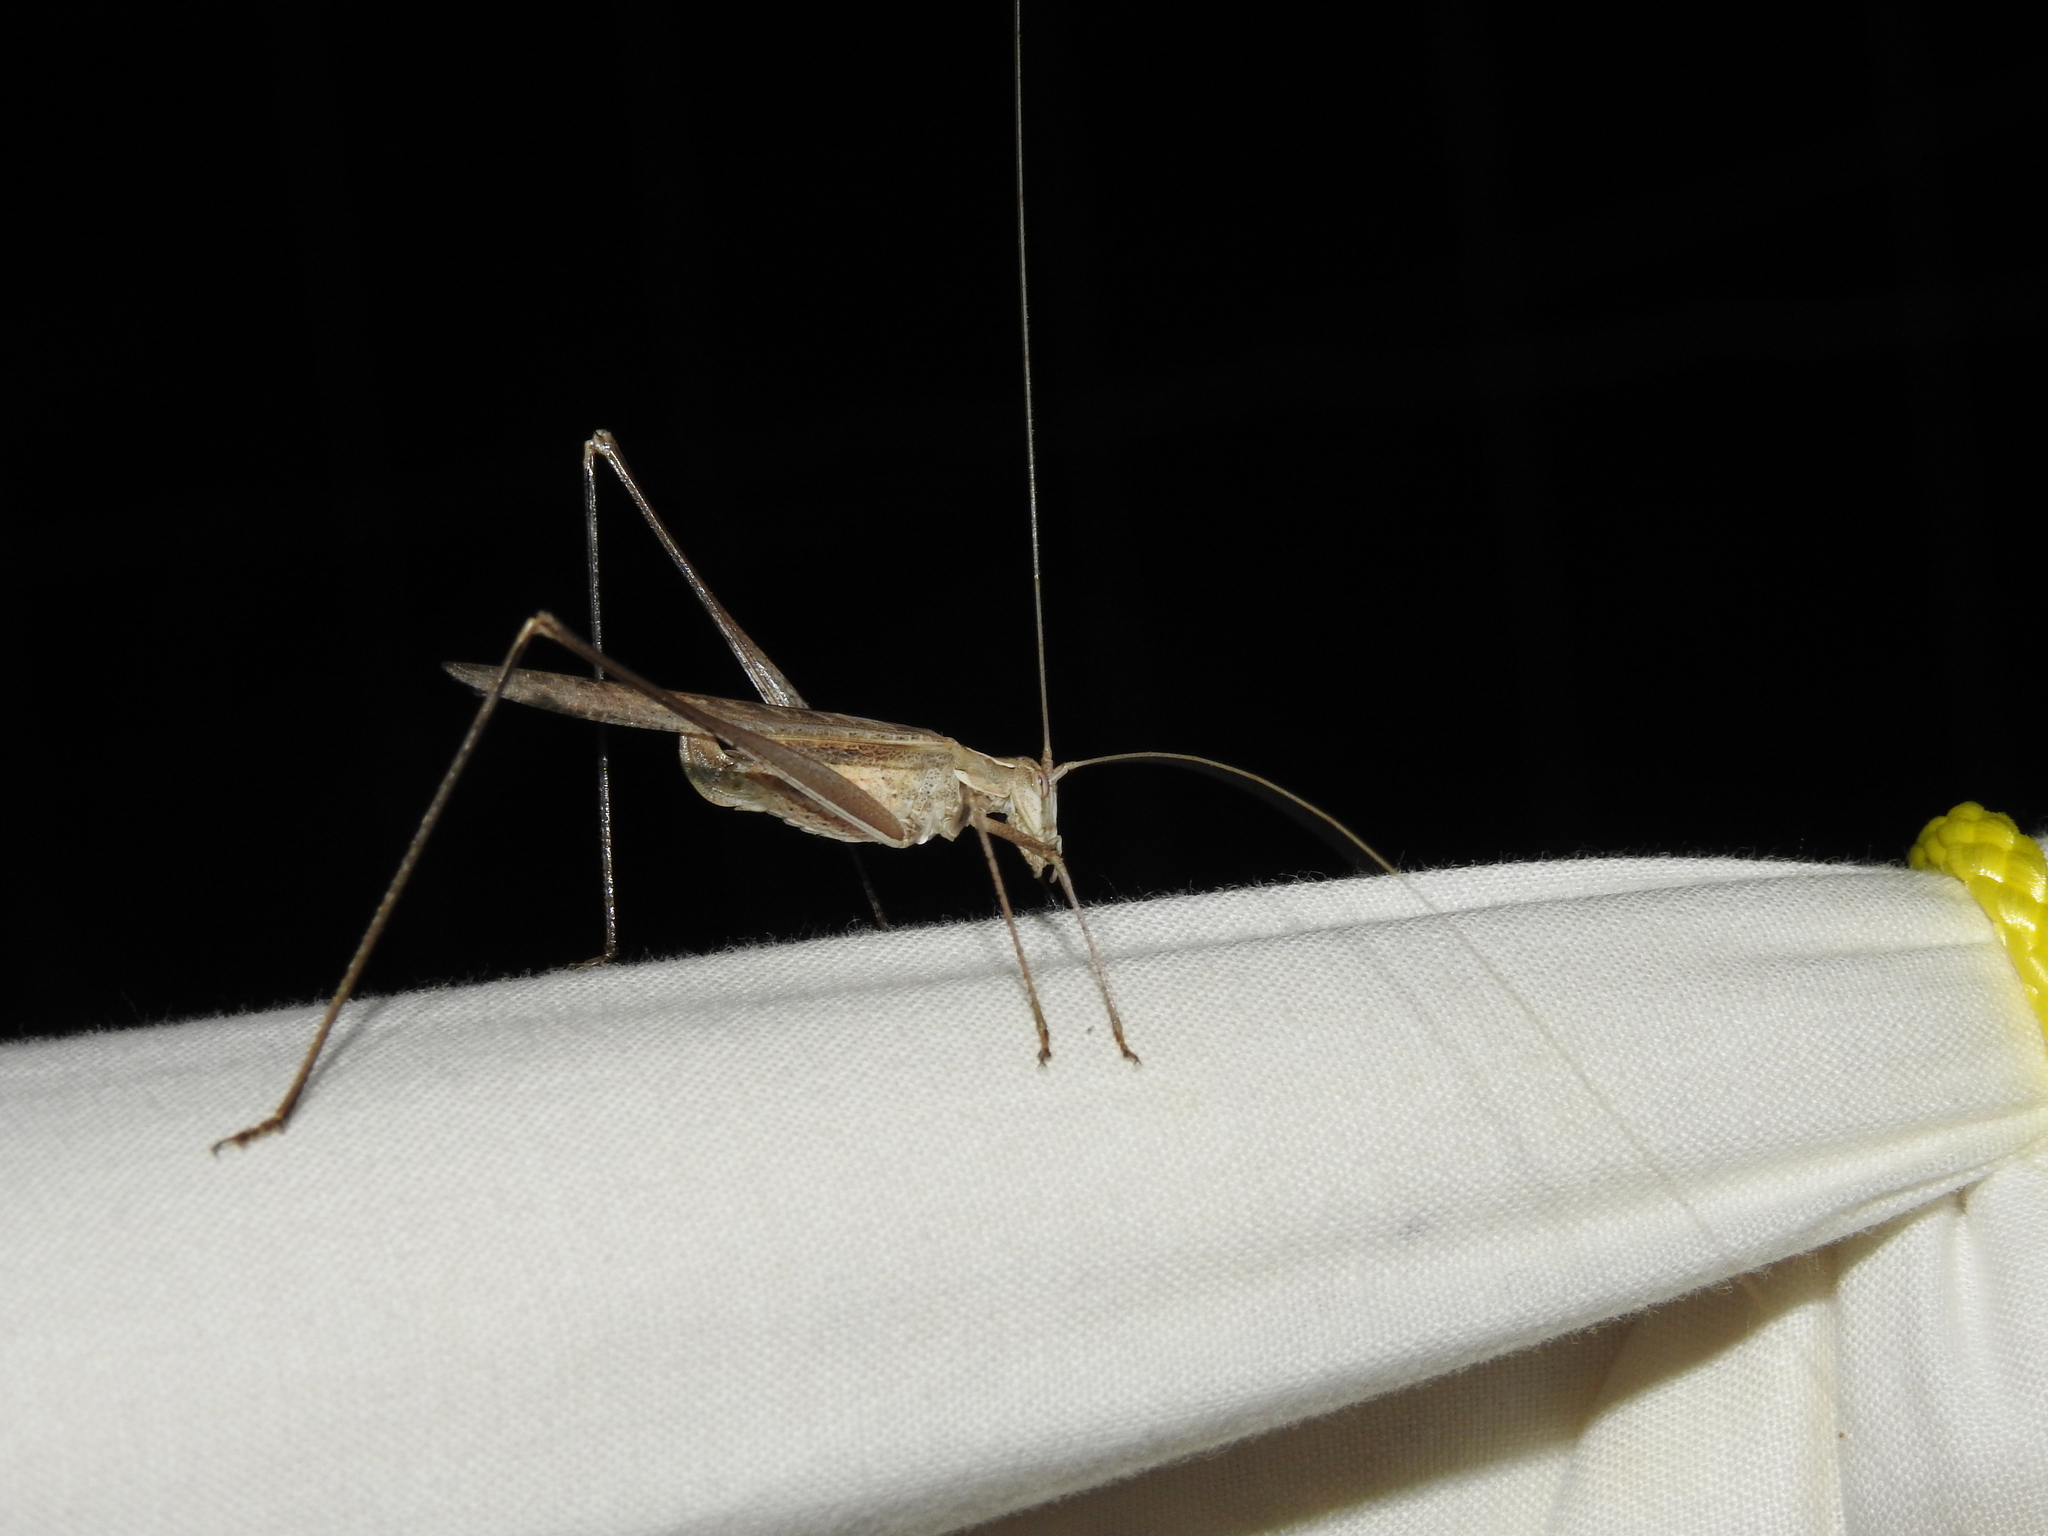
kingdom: Animalia
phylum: Arthropoda
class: Insecta
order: Orthoptera
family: Tettigoniidae
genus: Tylopsis
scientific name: Tylopsis lilifolia
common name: Lily bush-cricket
